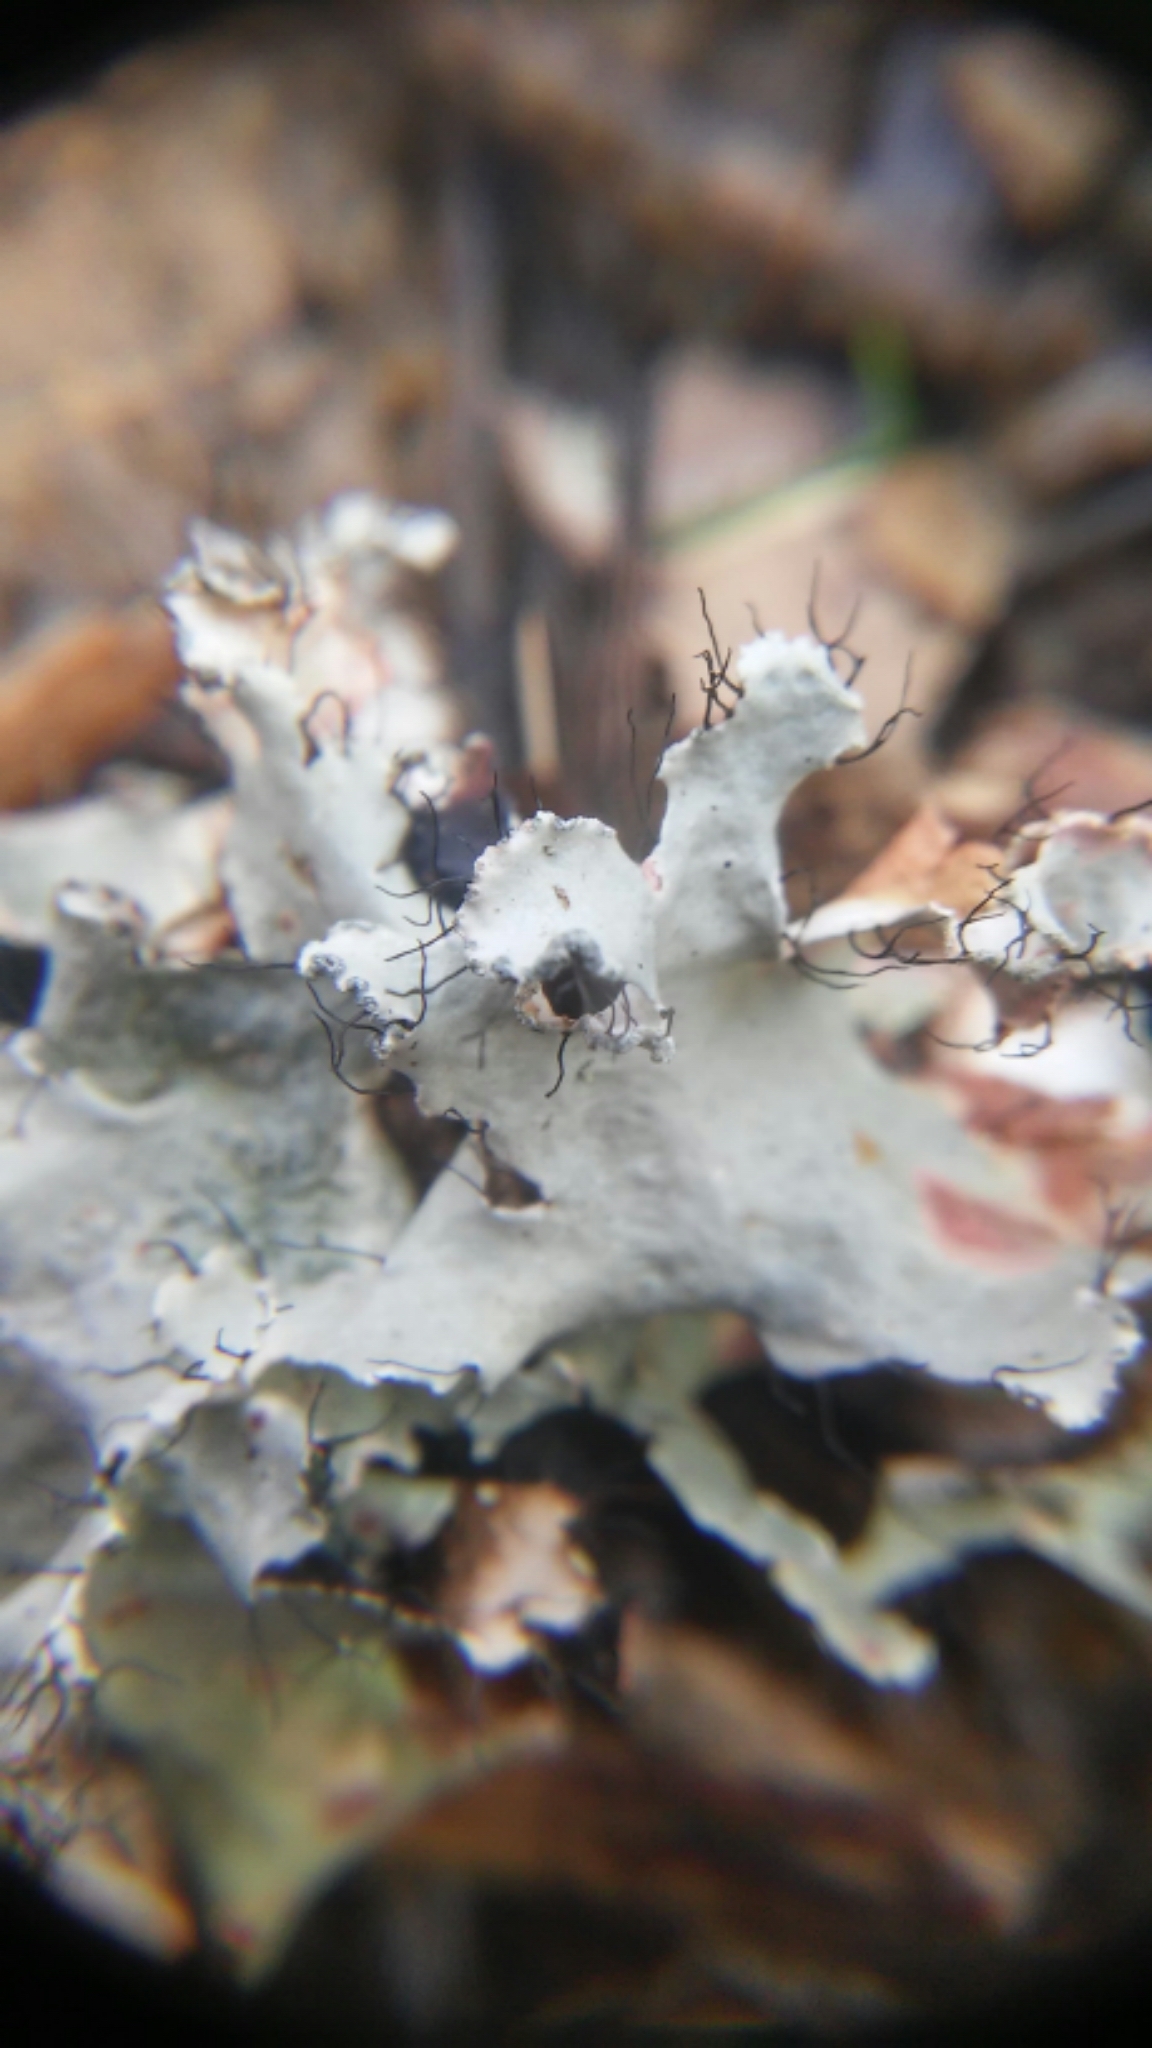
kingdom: Fungi
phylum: Ascomycota
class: Lecanoromycetes
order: Lecanorales
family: Parmeliaceae
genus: Parmotrema
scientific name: Parmotrema hypotropum
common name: Powdered ruffle lichen
